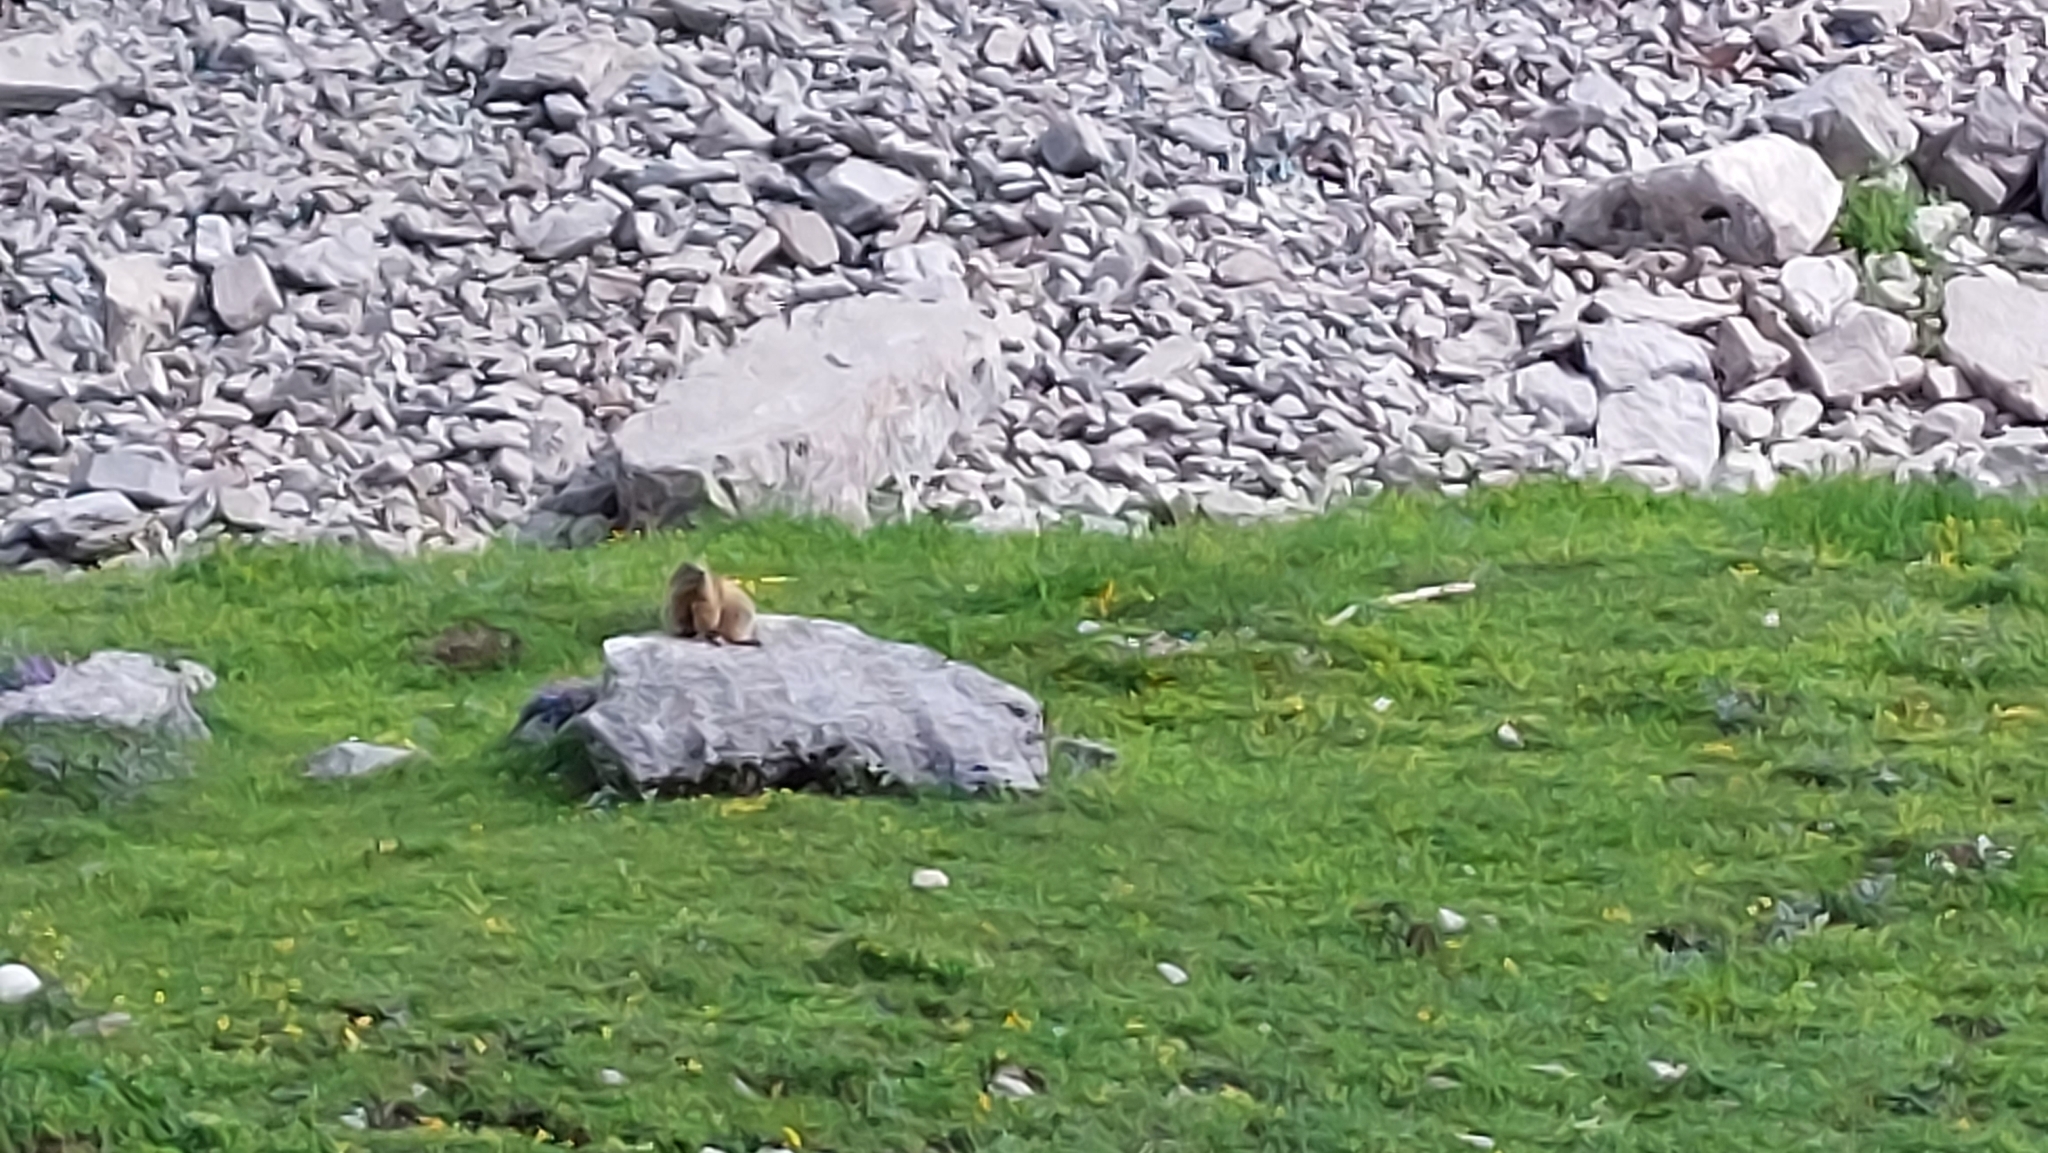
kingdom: Animalia
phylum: Chordata
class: Mammalia
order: Rodentia
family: Sciuridae
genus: Marmota
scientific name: Marmota marmota
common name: Alpine marmot
